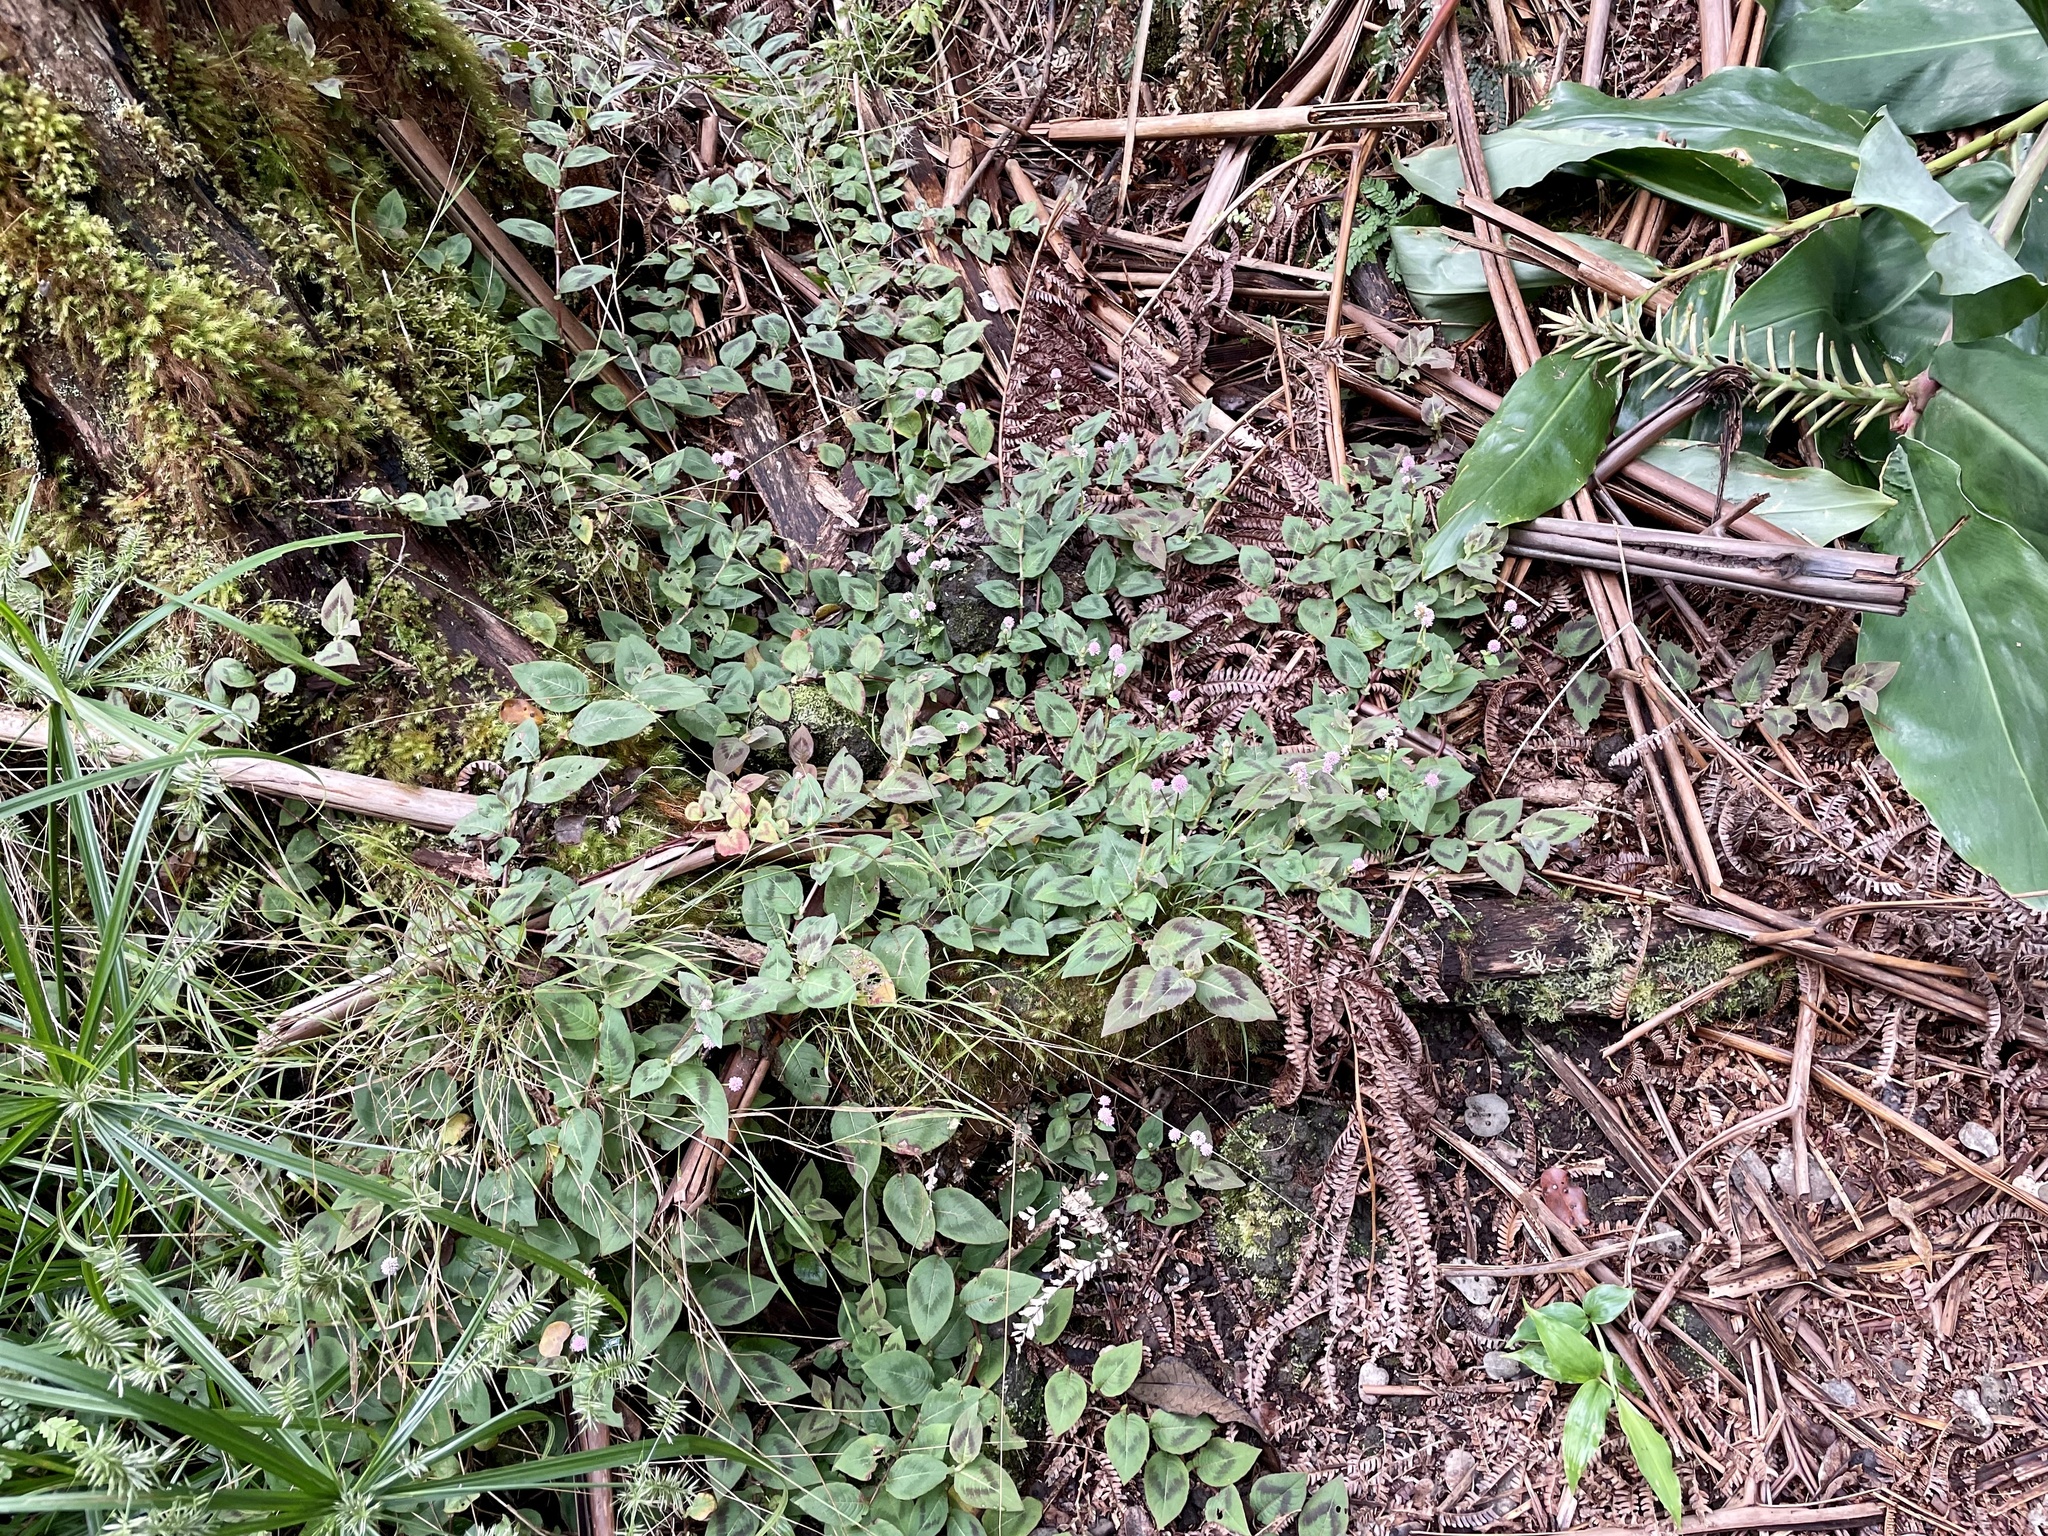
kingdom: Plantae
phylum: Tracheophyta
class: Magnoliopsida
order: Caryophyllales
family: Polygonaceae
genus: Persicaria
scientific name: Persicaria capitata
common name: Pinkhead smartweed
